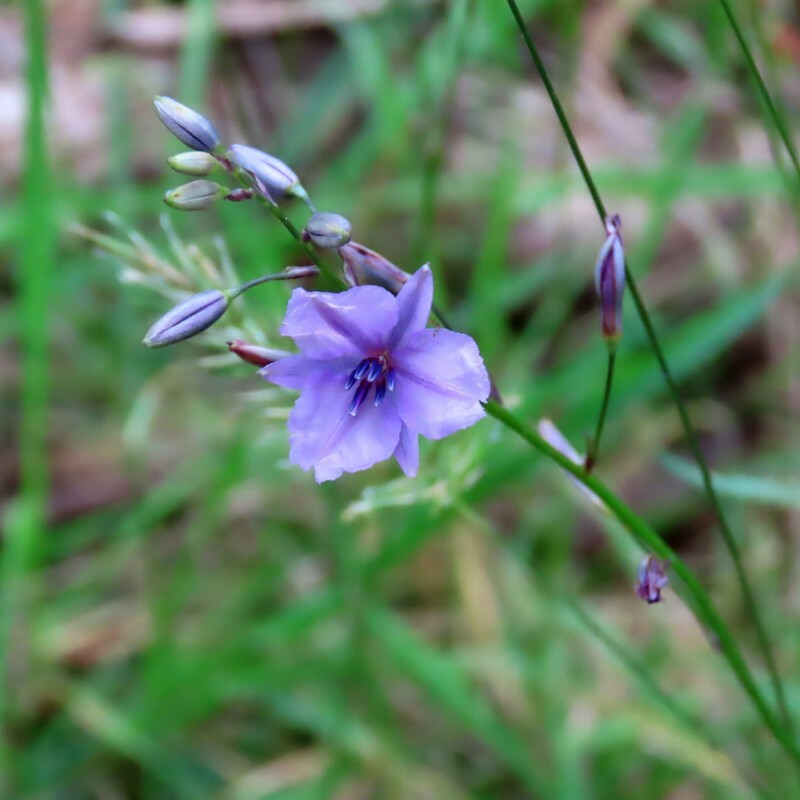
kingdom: Plantae
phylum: Tracheophyta
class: Liliopsida
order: Asparagales
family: Asparagaceae
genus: Arthropodium
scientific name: Arthropodium strictum
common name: Chocolate-lily
